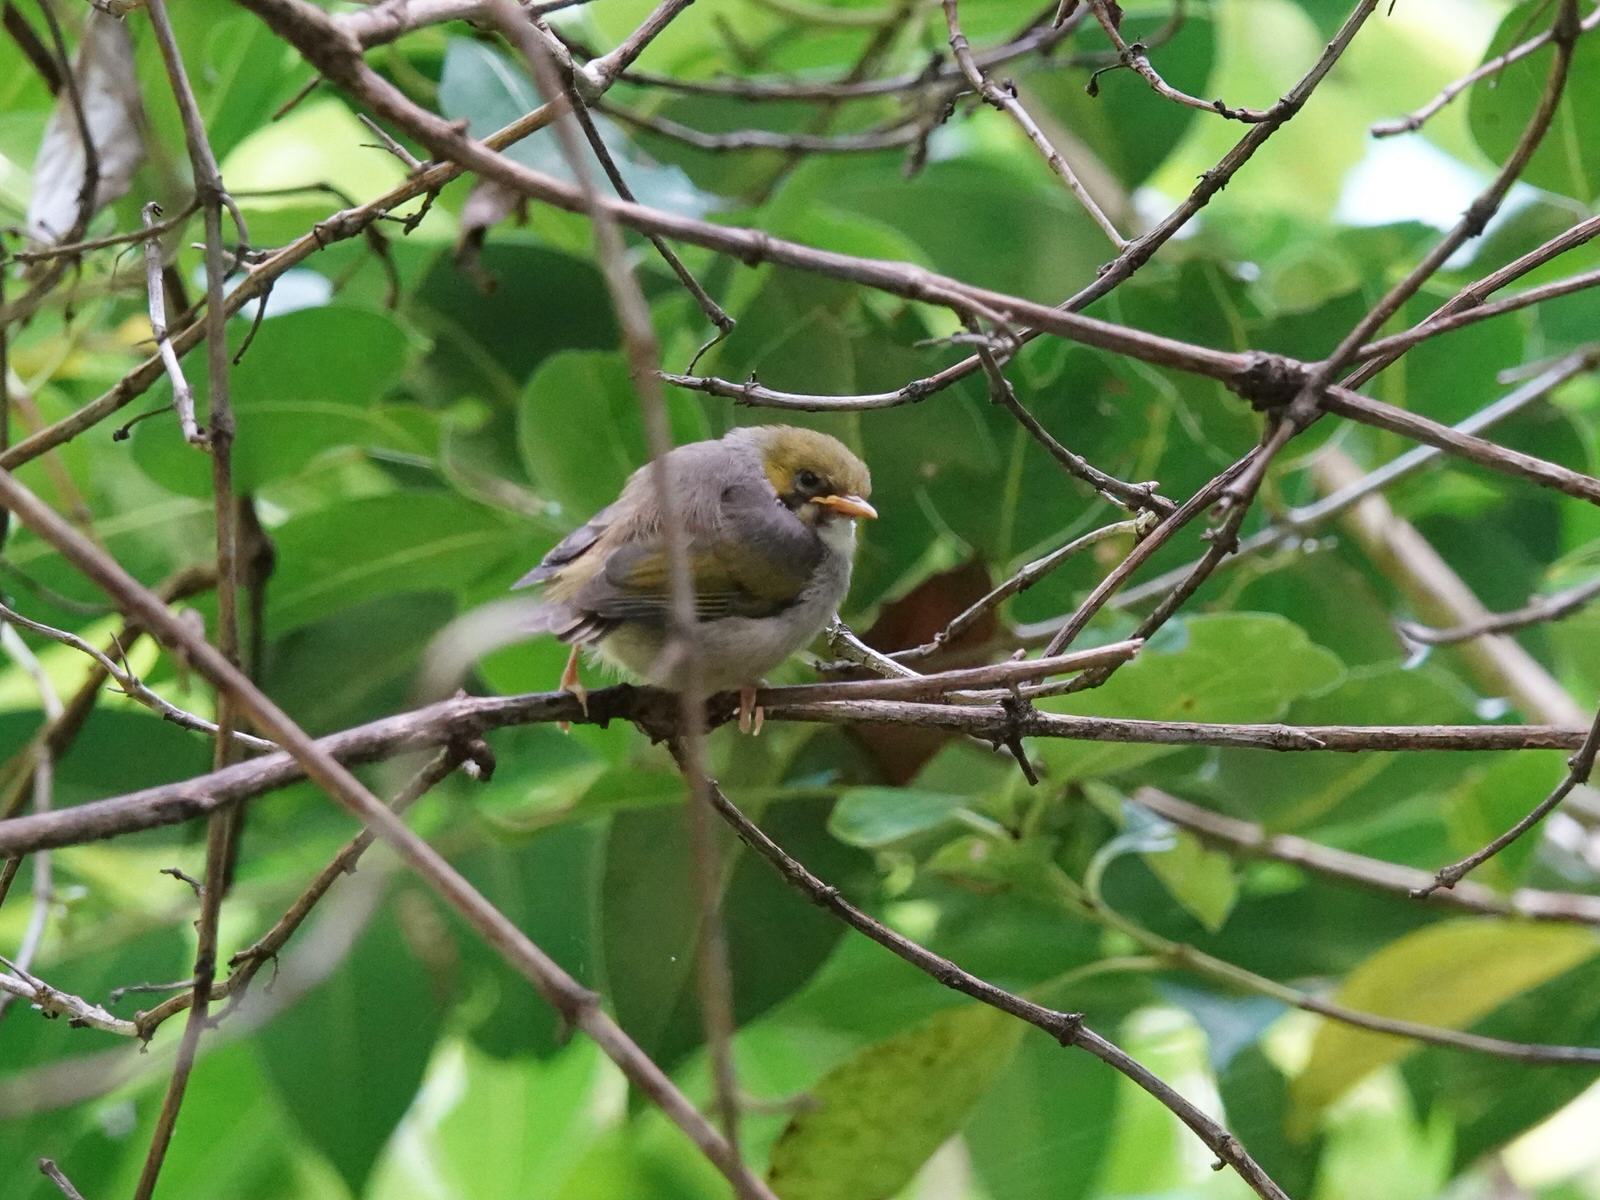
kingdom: Animalia
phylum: Chordata
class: Aves
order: Passeriformes
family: Zosteropidae
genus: Zosterops
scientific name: Zosterops lateralis
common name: Silvereye
